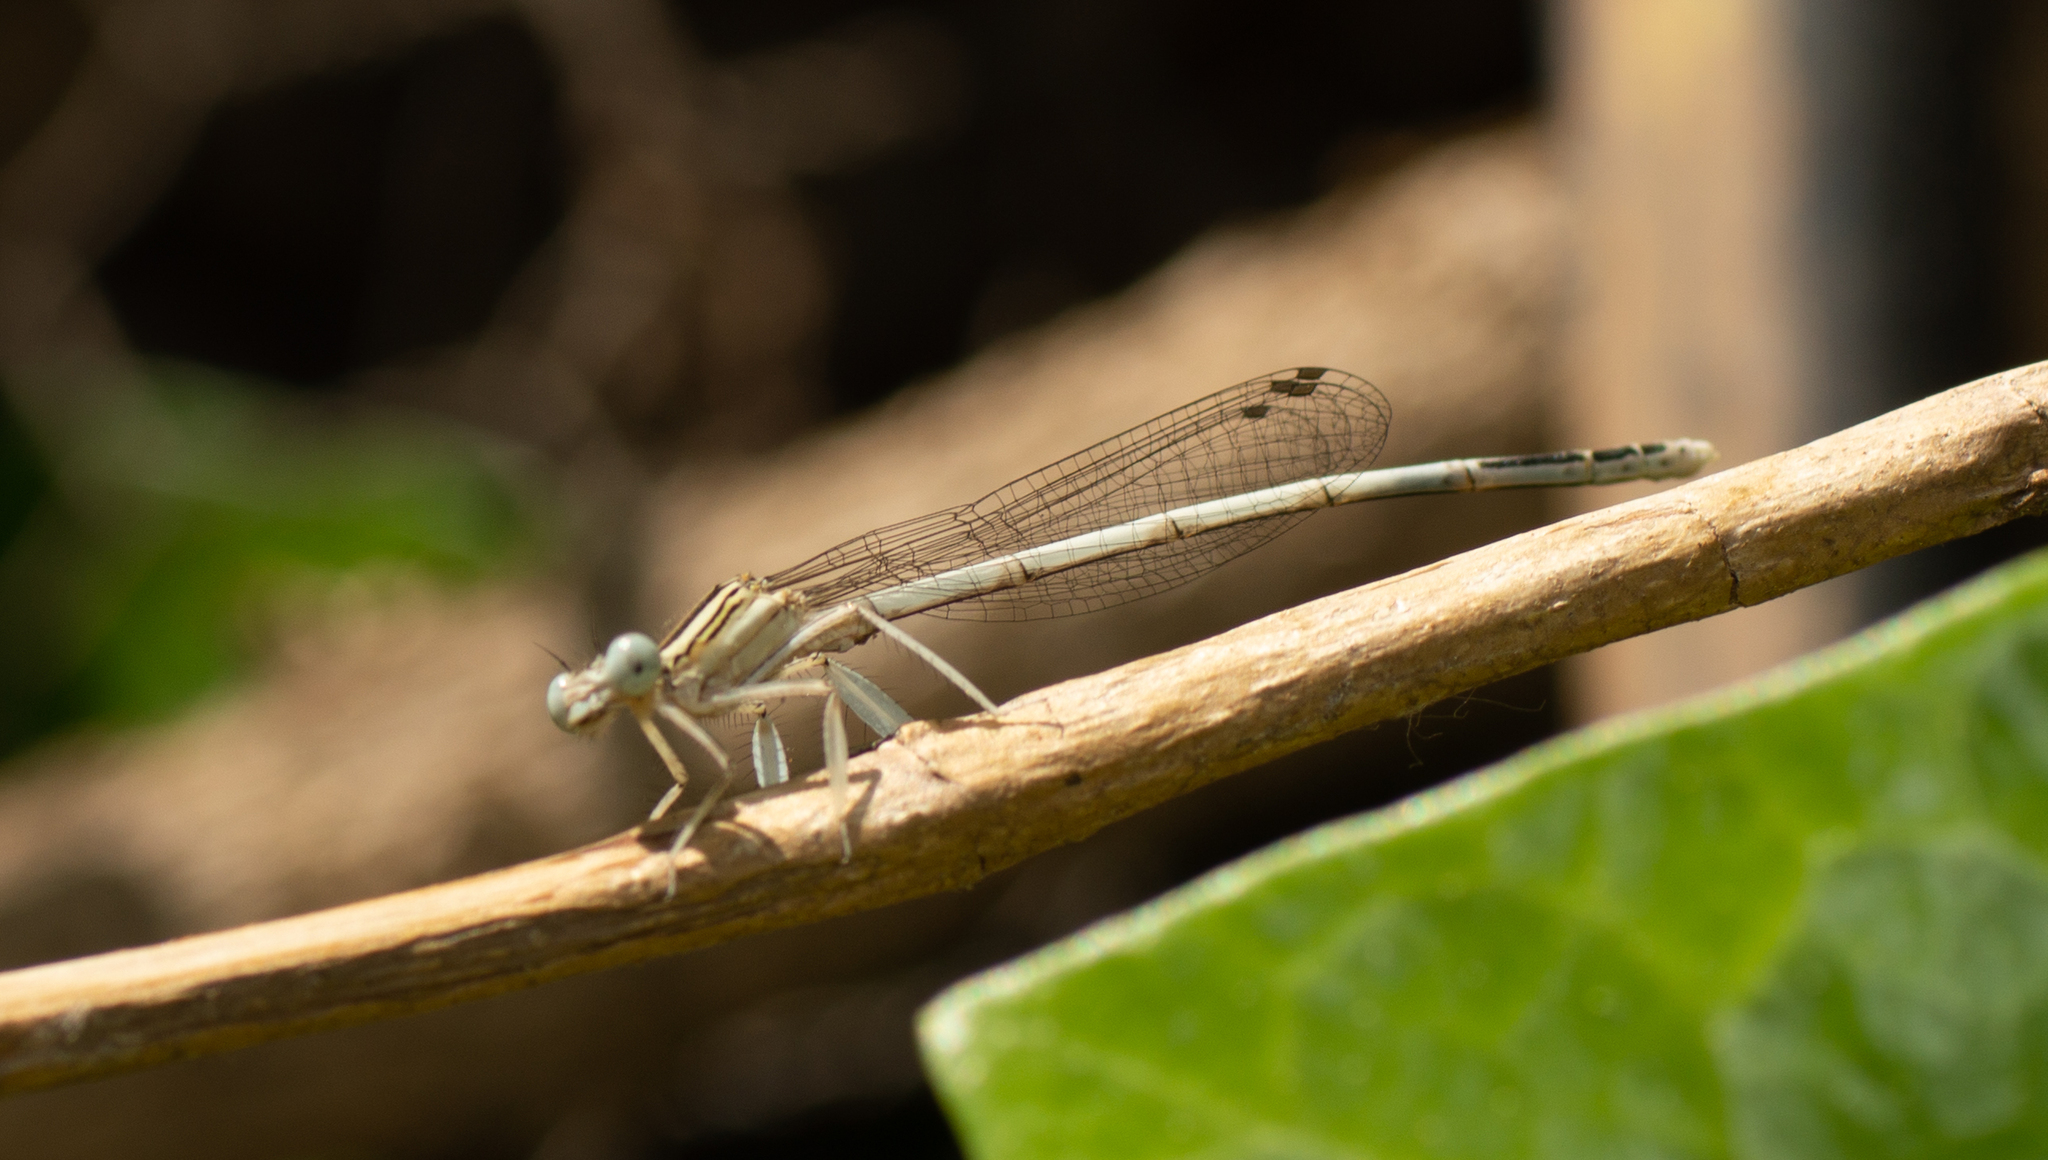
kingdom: Animalia
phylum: Arthropoda
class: Insecta
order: Odonata
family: Platycnemididae
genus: Platycnemis
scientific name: Platycnemis latipes
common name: White featherleg
